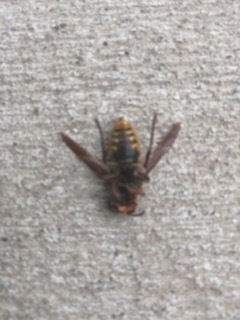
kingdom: Animalia
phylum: Arthropoda
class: Insecta
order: Hymenoptera
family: Vespidae
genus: Vespa
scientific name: Vespa crabro
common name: Hornet
